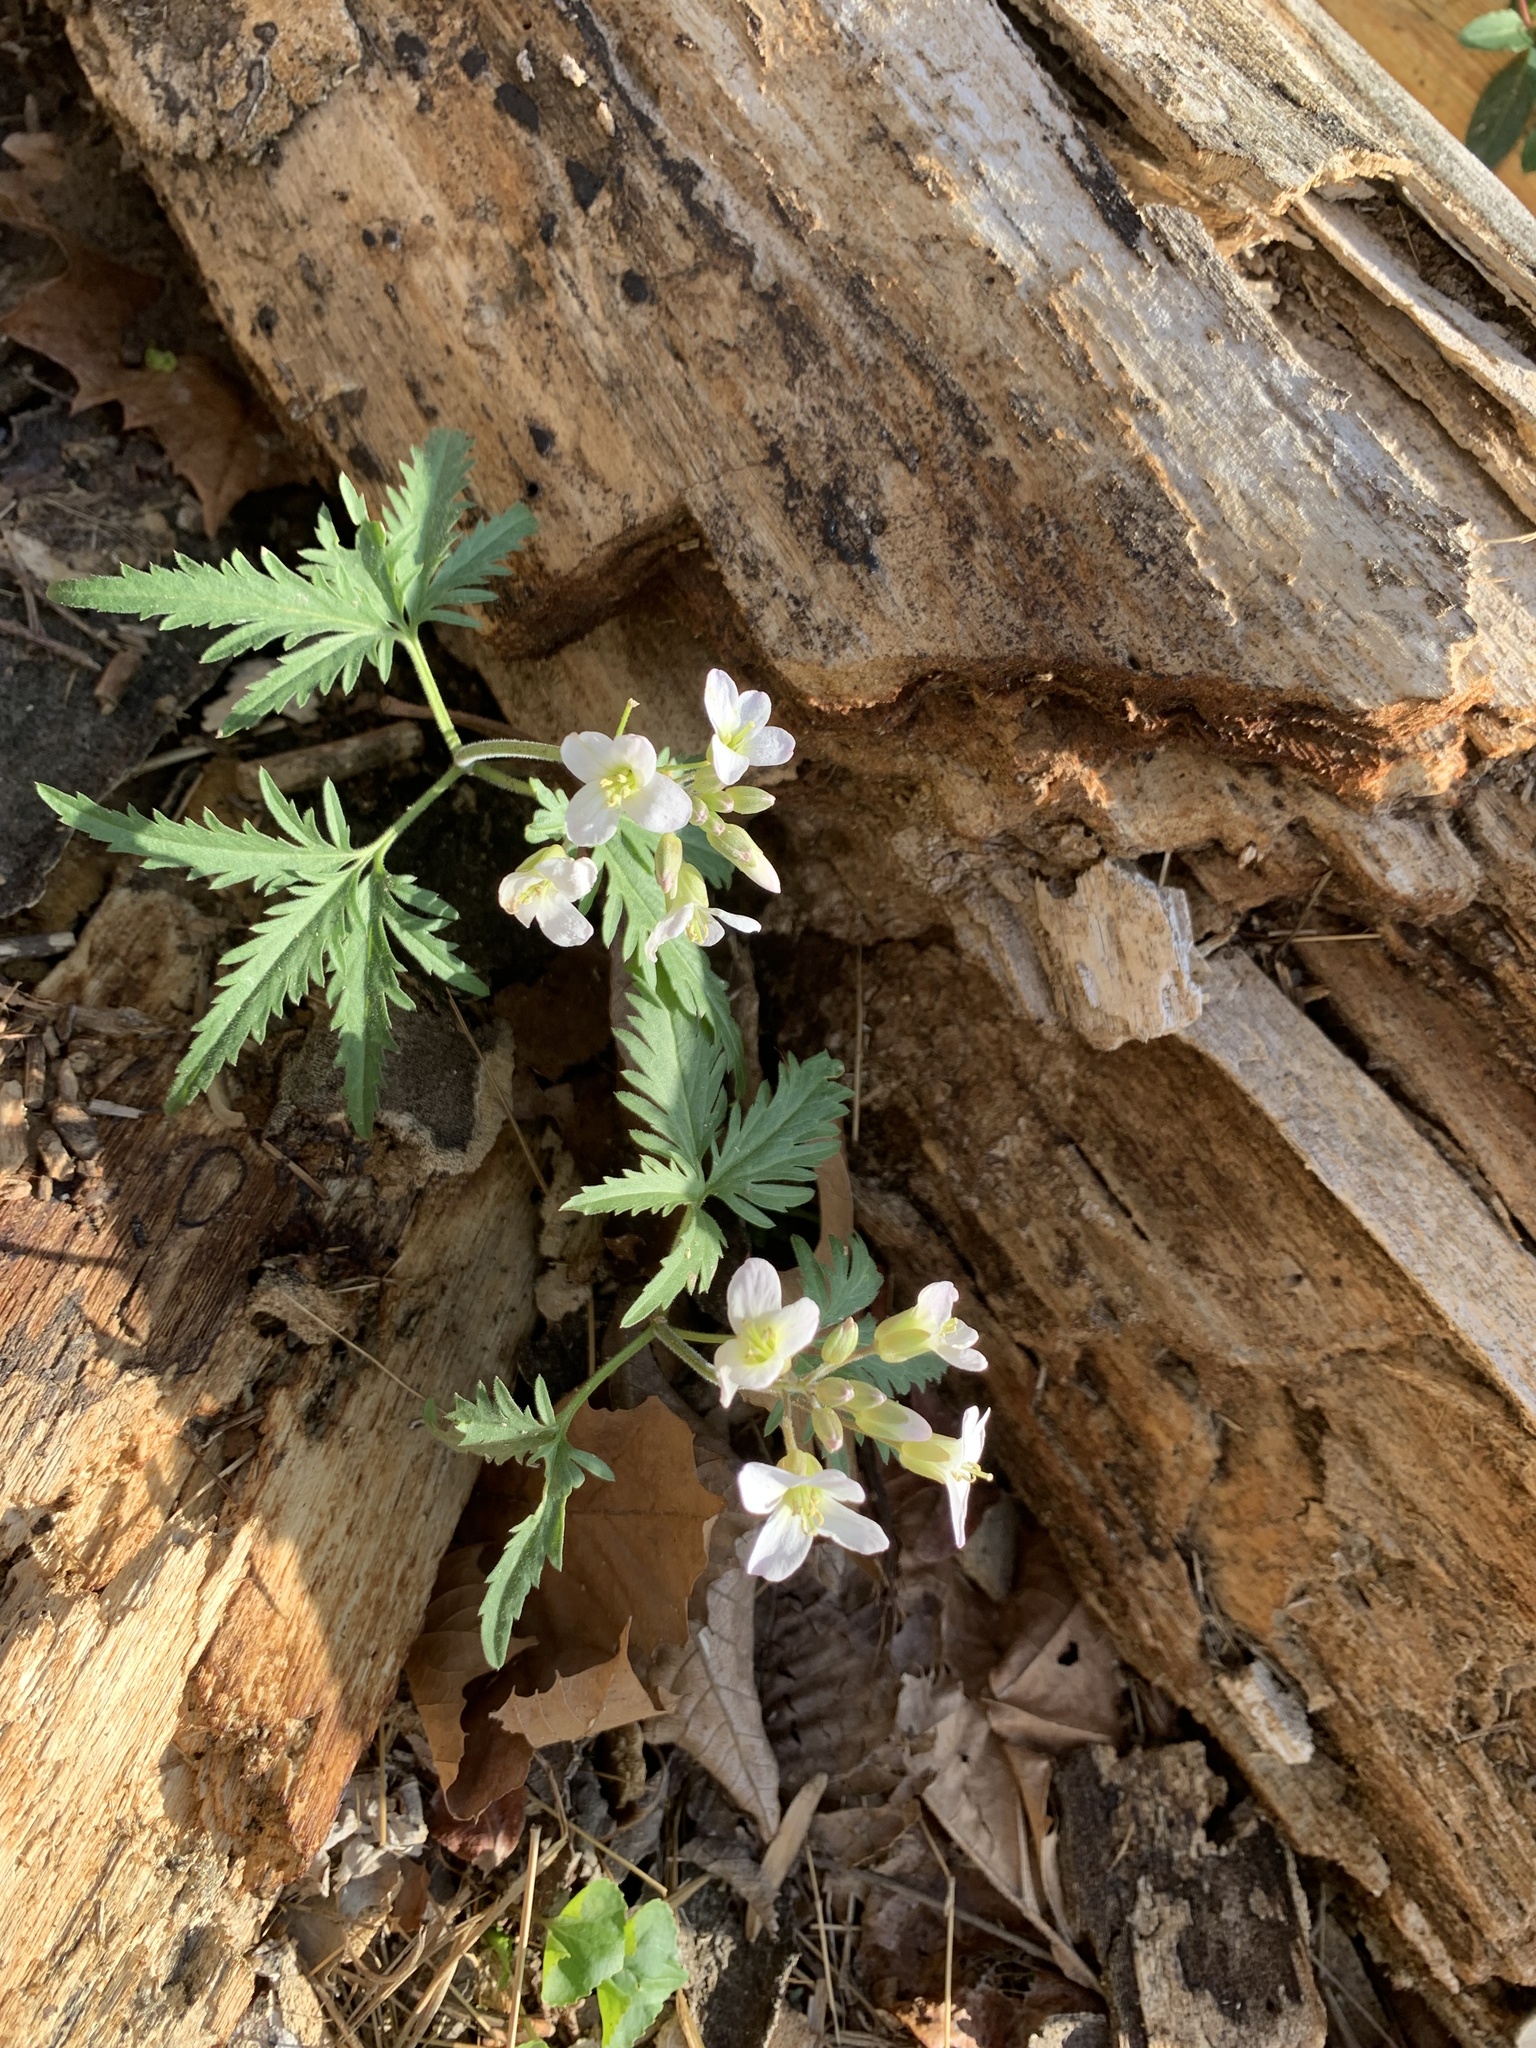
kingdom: Plantae
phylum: Tracheophyta
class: Magnoliopsida
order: Brassicales
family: Brassicaceae
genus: Cardamine
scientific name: Cardamine concatenata
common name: Cut-leaf toothcup
